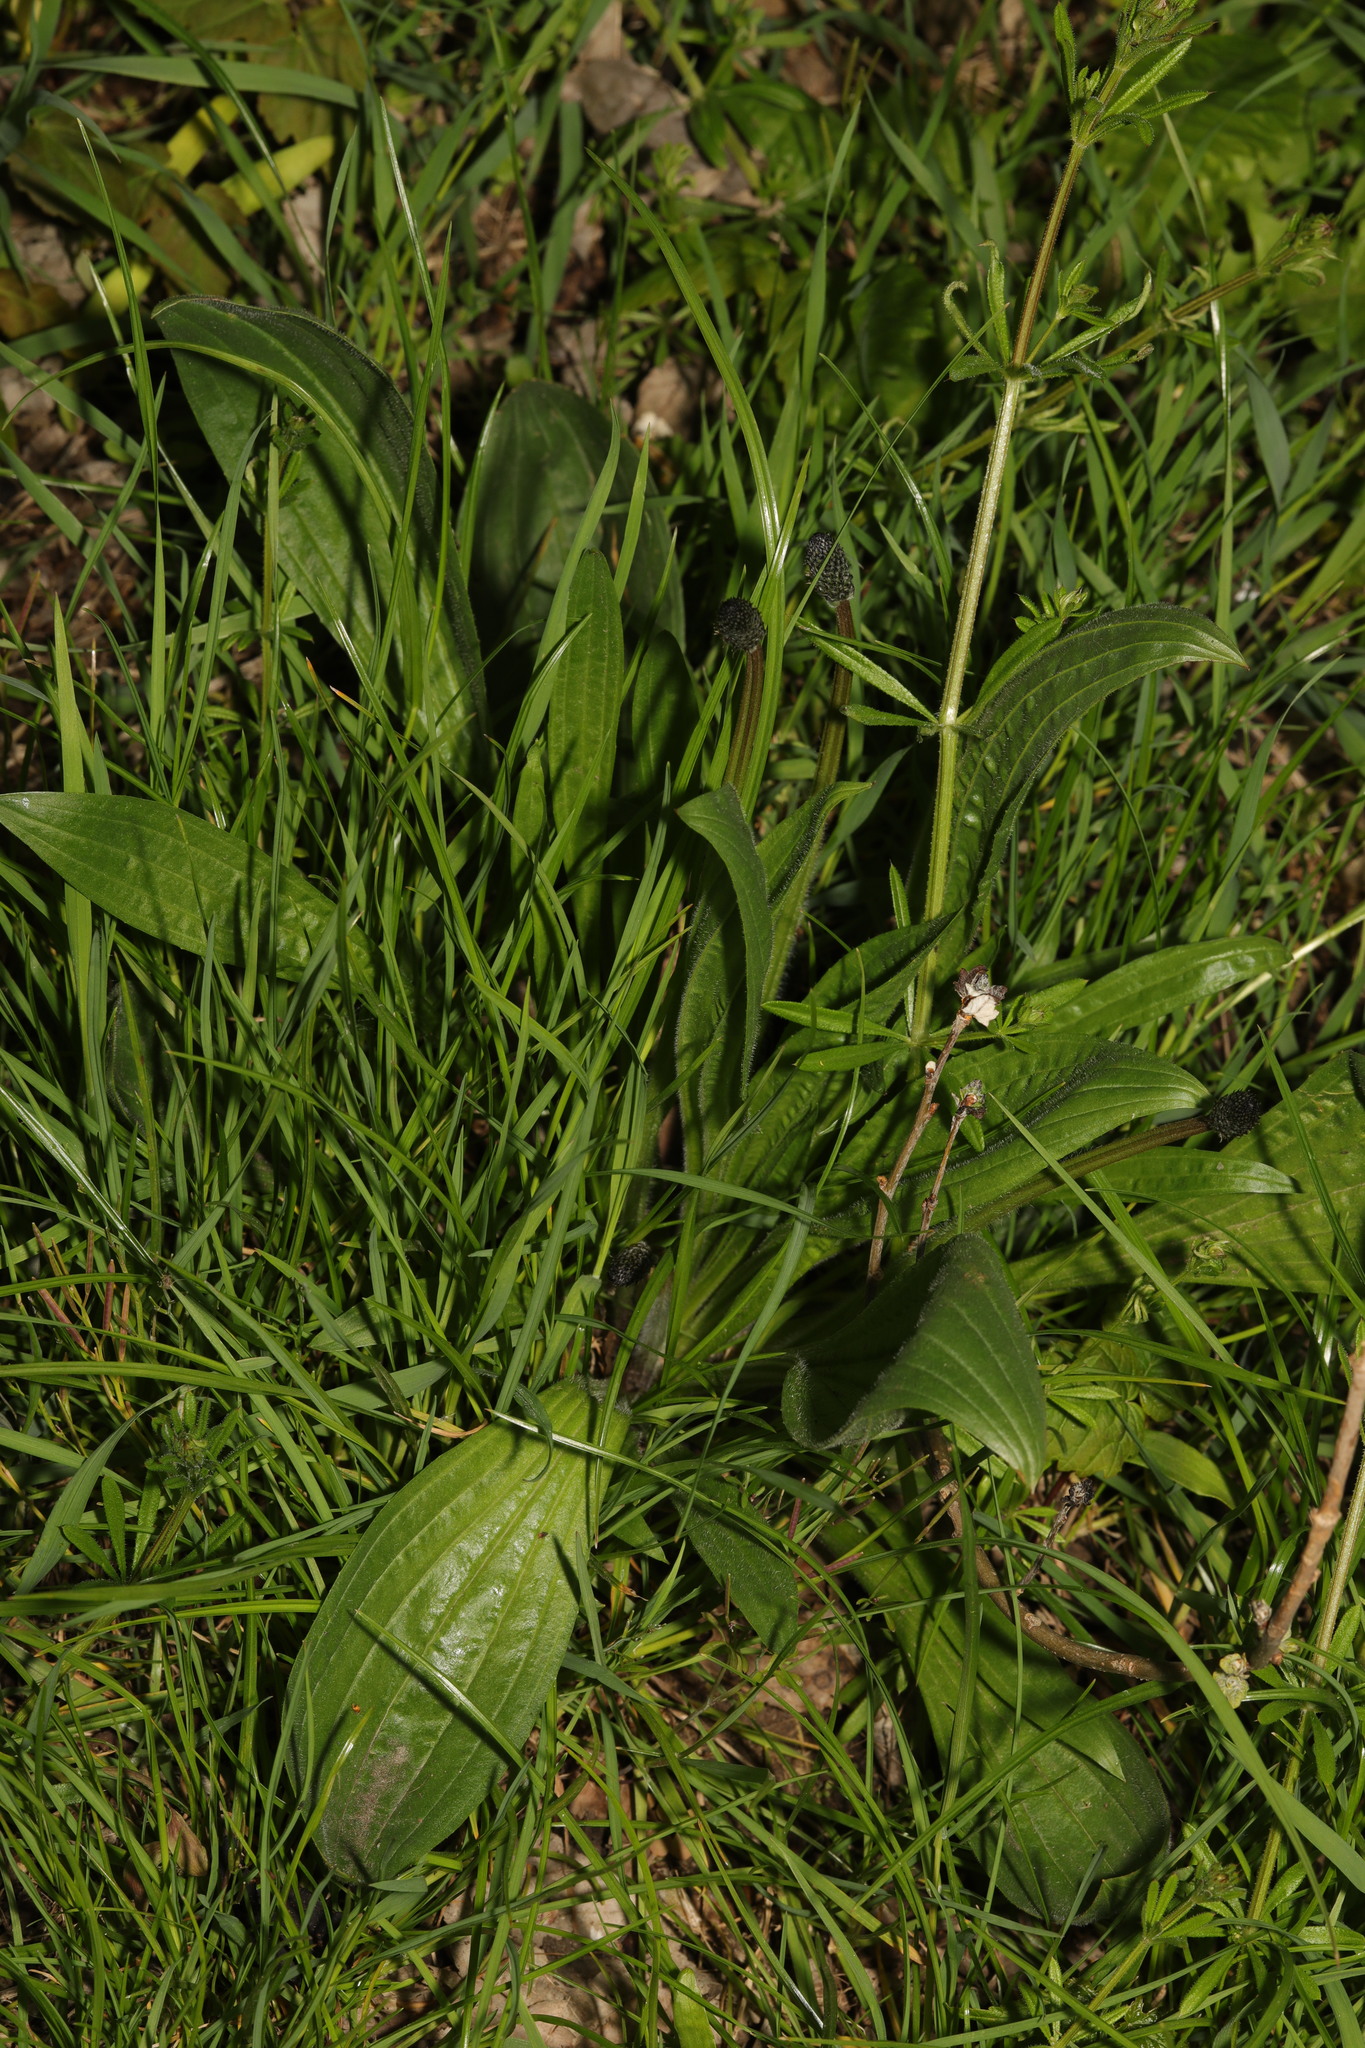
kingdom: Plantae
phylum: Tracheophyta
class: Magnoliopsida
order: Lamiales
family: Plantaginaceae
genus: Plantago
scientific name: Plantago lanceolata
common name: Ribwort plantain
